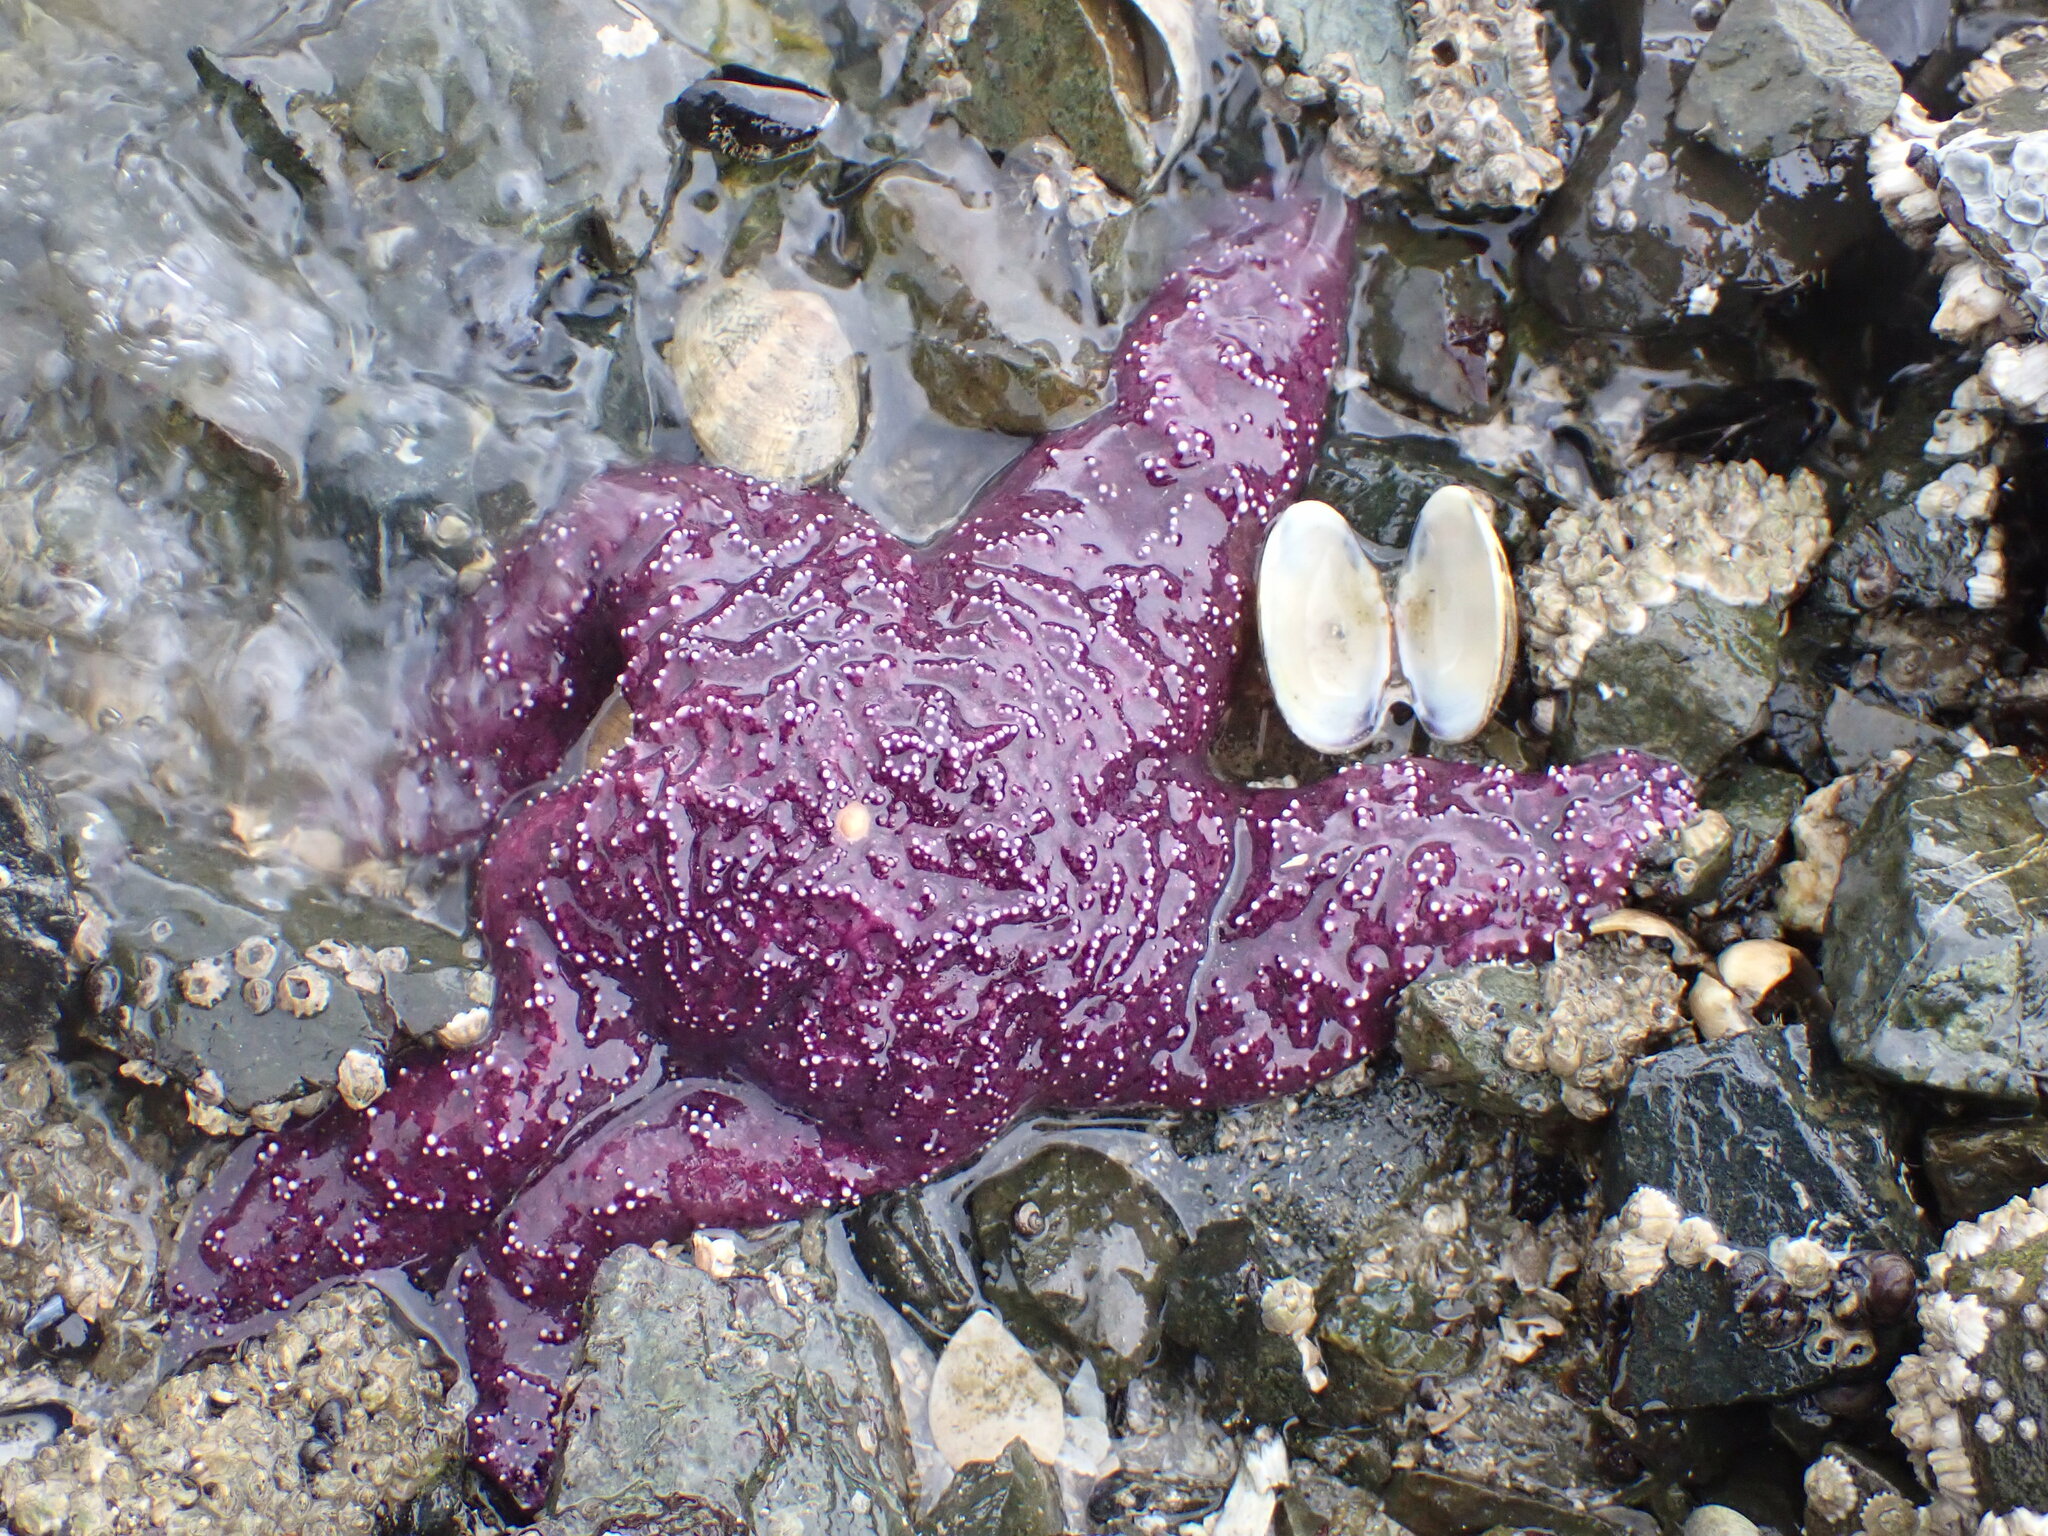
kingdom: Animalia
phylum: Echinodermata
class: Asteroidea
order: Forcipulatida
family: Asteriidae
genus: Pisaster
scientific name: Pisaster ochraceus
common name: Ochre stars
